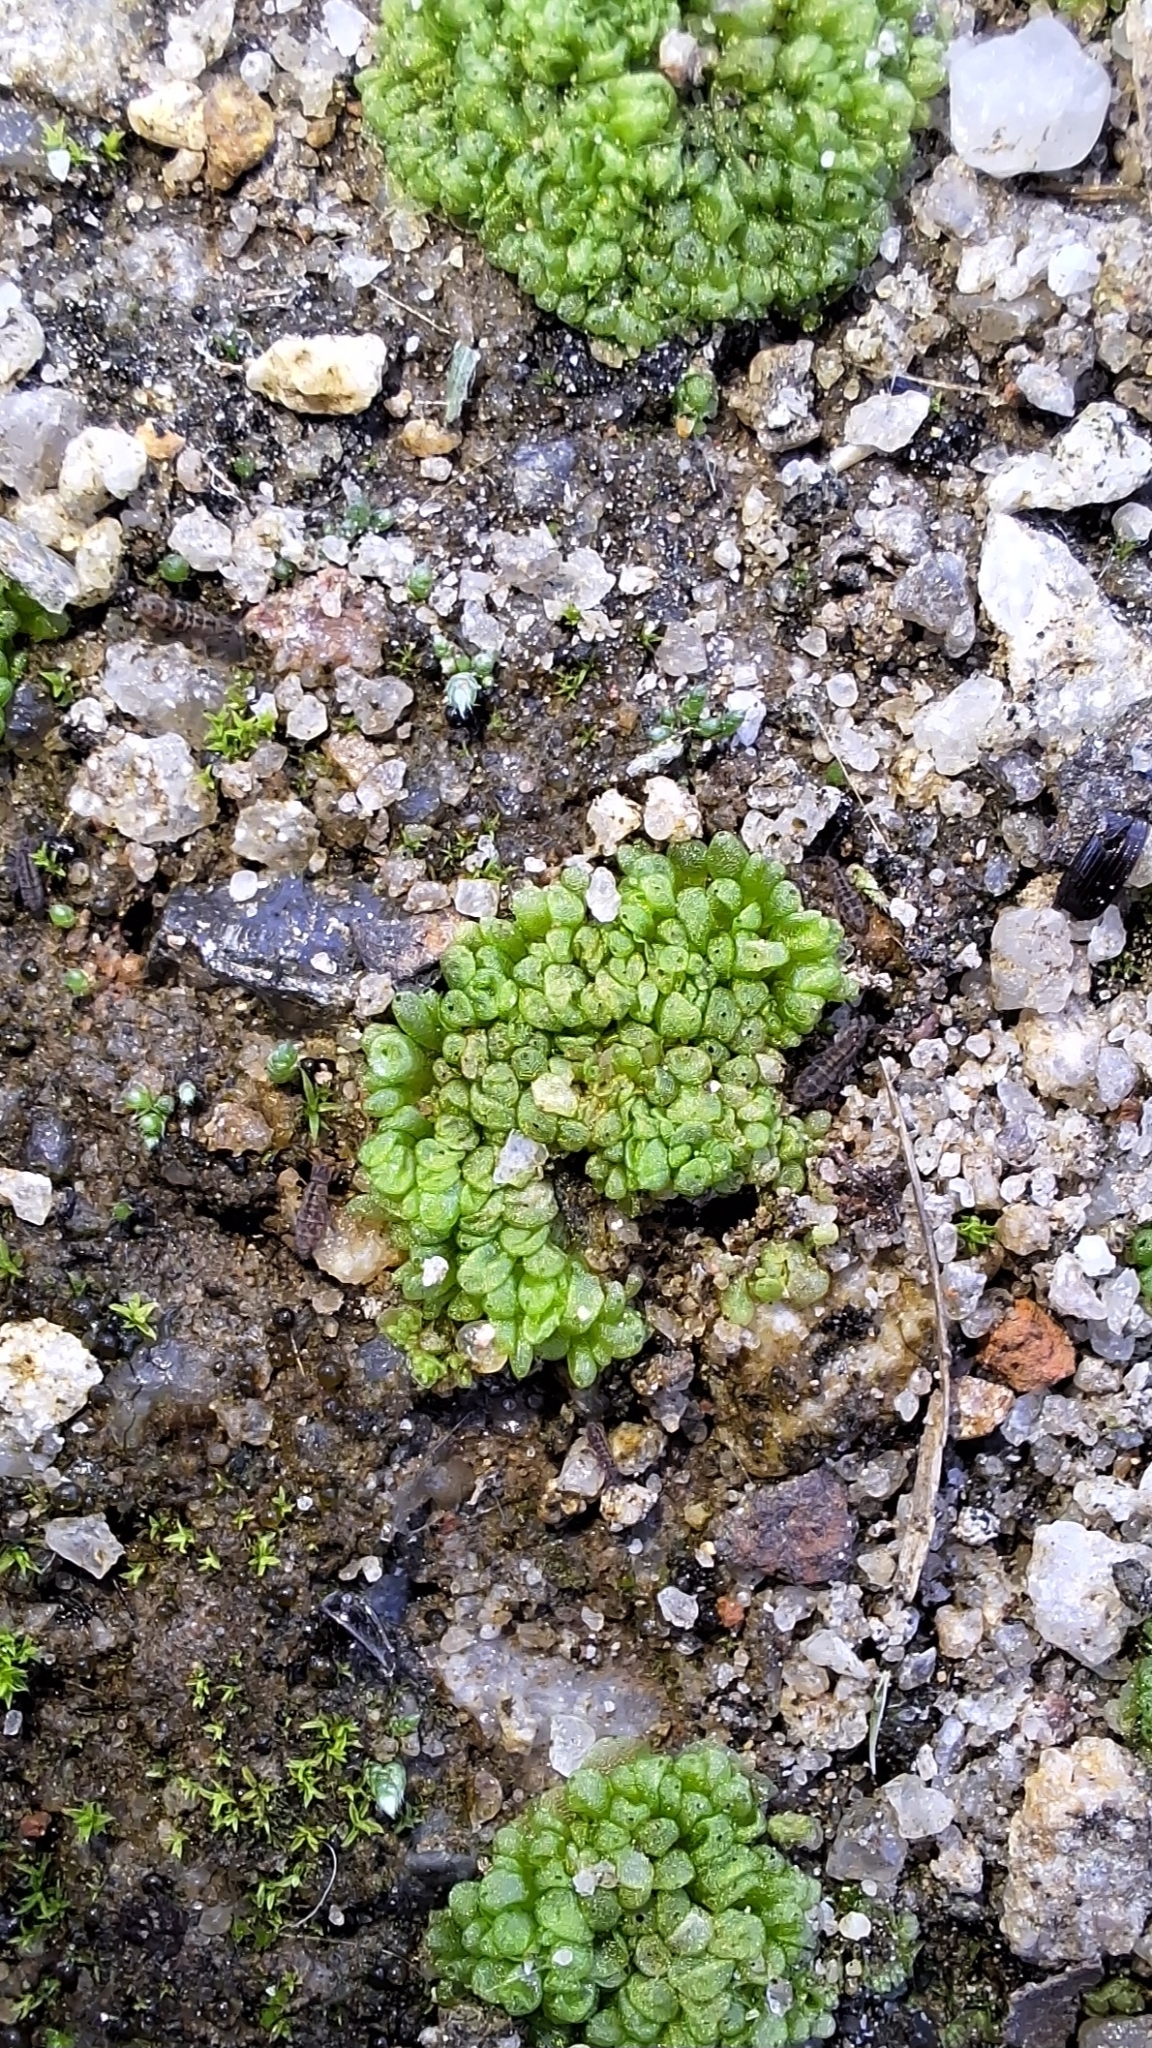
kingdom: Plantae
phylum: Marchantiophyta
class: Marchantiopsida
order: Sphaerocarpales
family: Sphaerocarpaceae
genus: Sphaerocarpos
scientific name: Sphaerocarpos texanus
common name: Texas balloonwort
